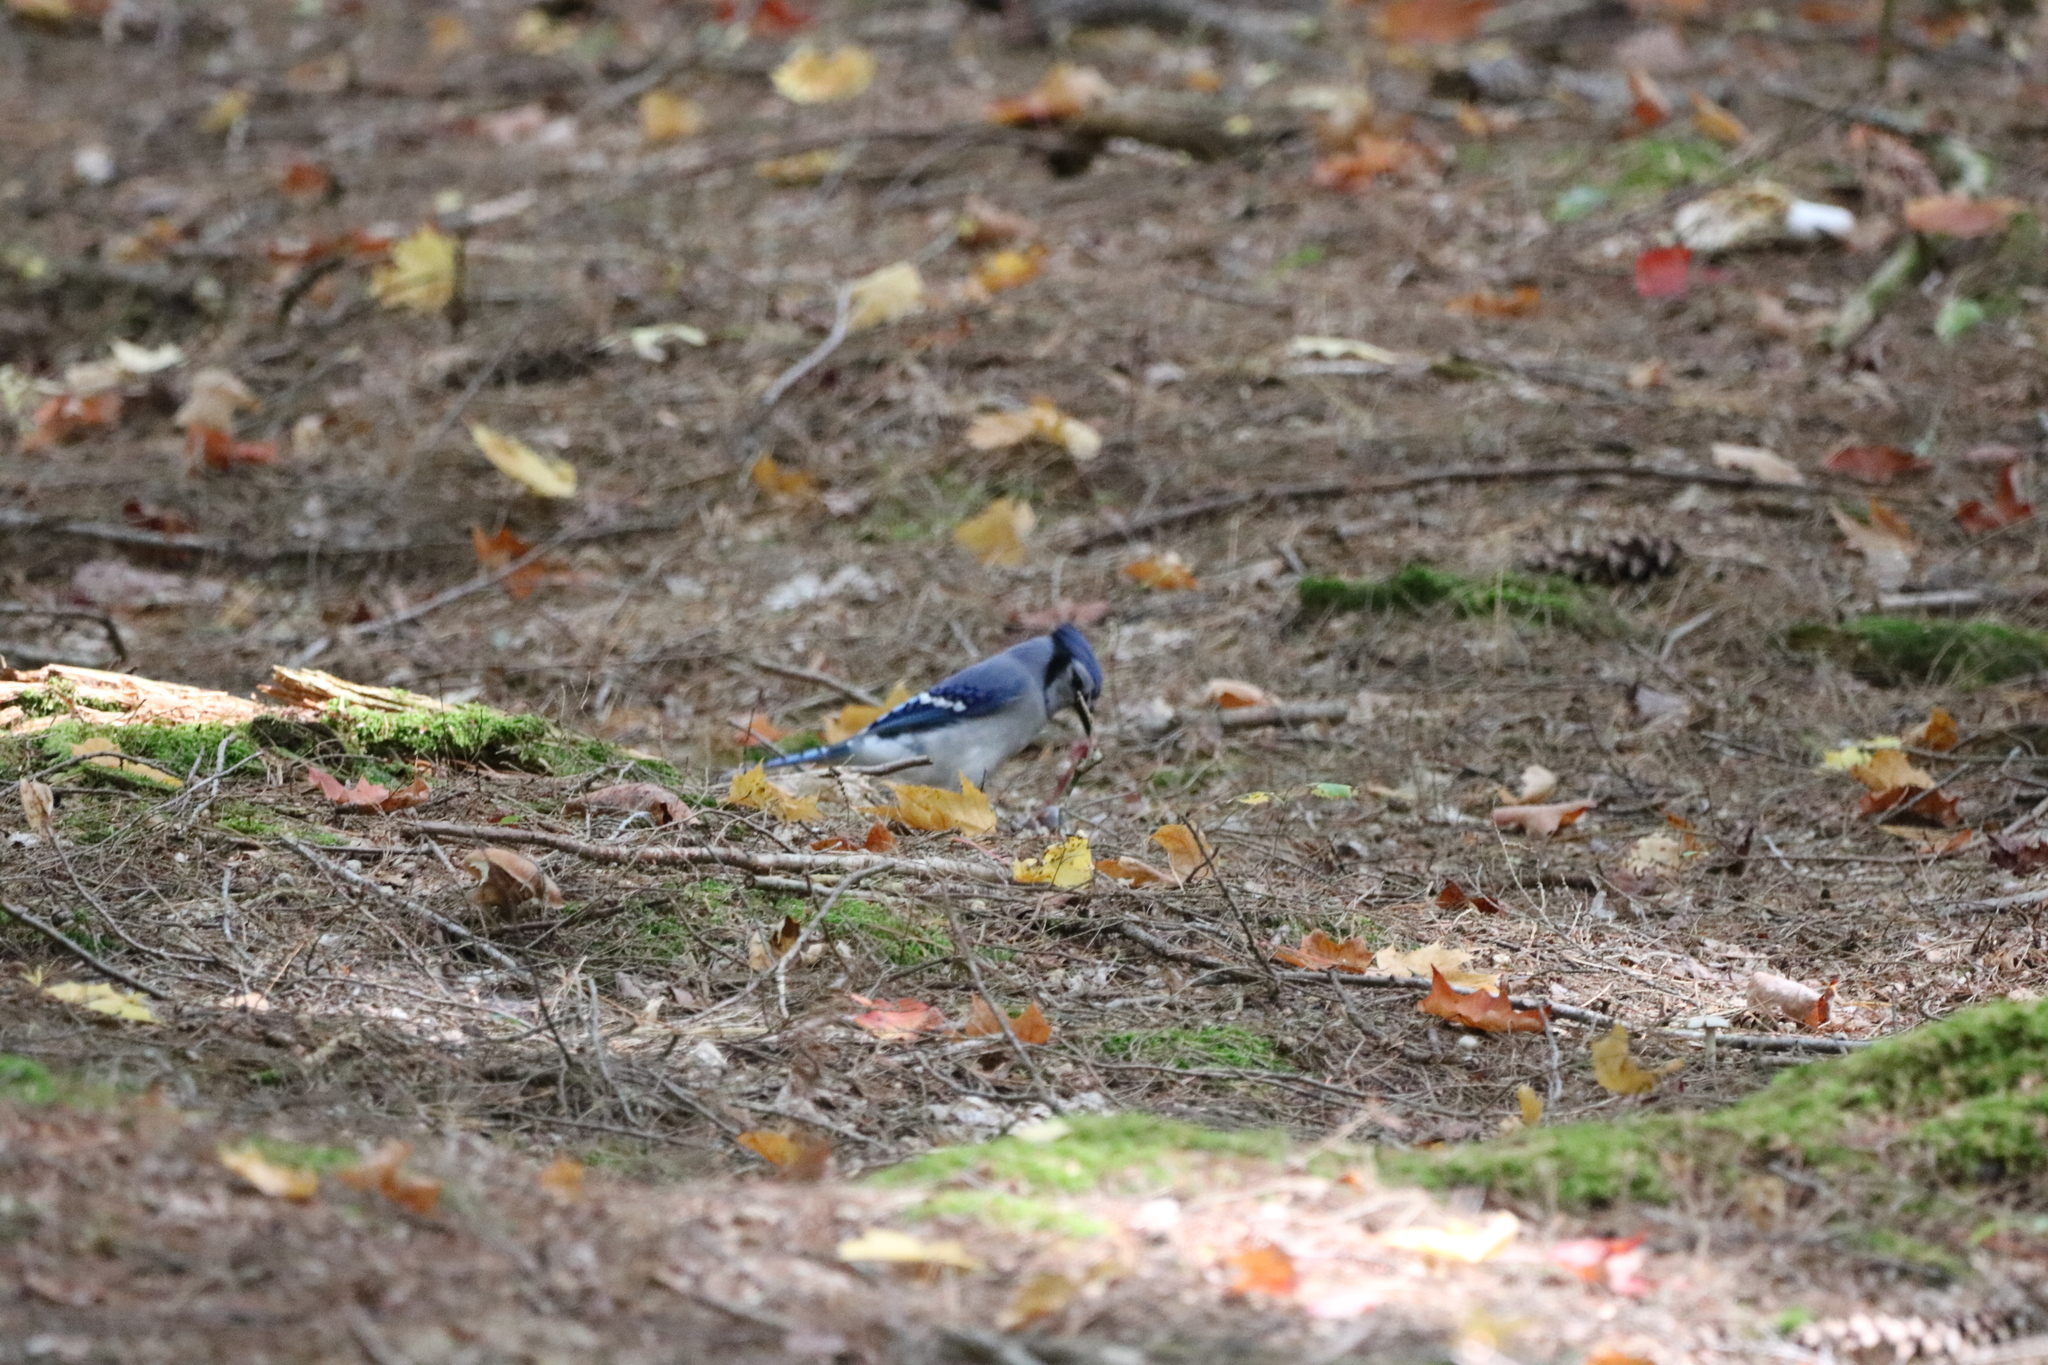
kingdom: Animalia
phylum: Chordata
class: Aves
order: Passeriformes
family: Corvidae
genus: Cyanocitta
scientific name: Cyanocitta cristata
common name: Blue jay
